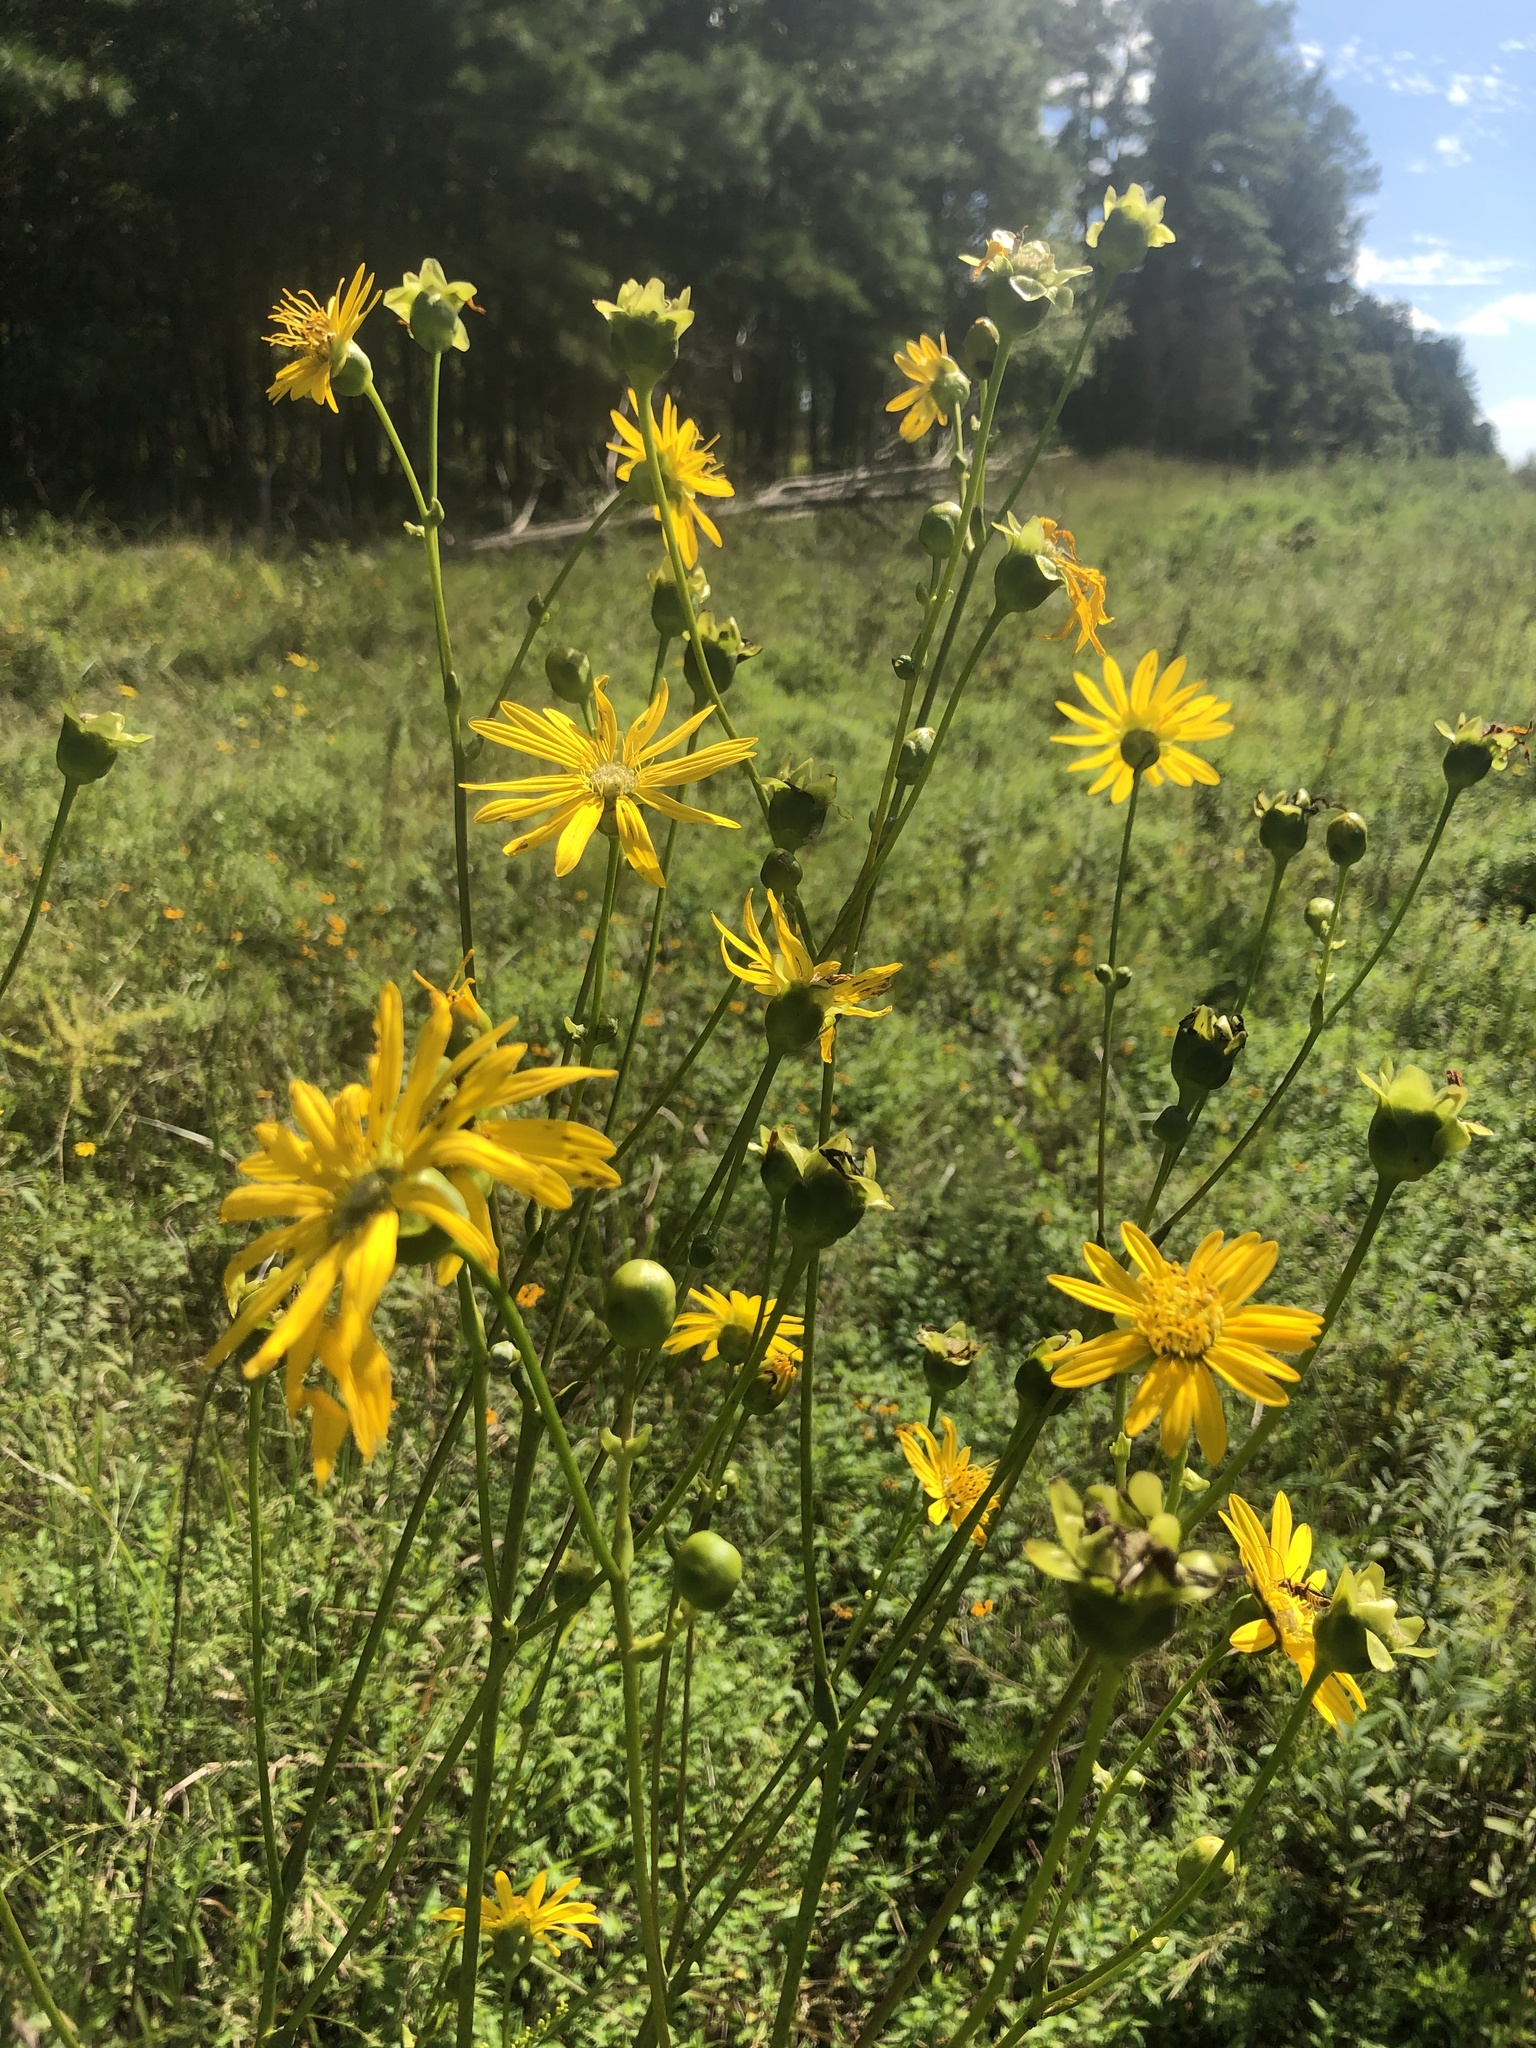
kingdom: Plantae
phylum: Tracheophyta
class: Magnoliopsida
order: Asterales
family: Asteraceae
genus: Silphium
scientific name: Silphium terebinthinaceum
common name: Basal-leaf rosinweed
